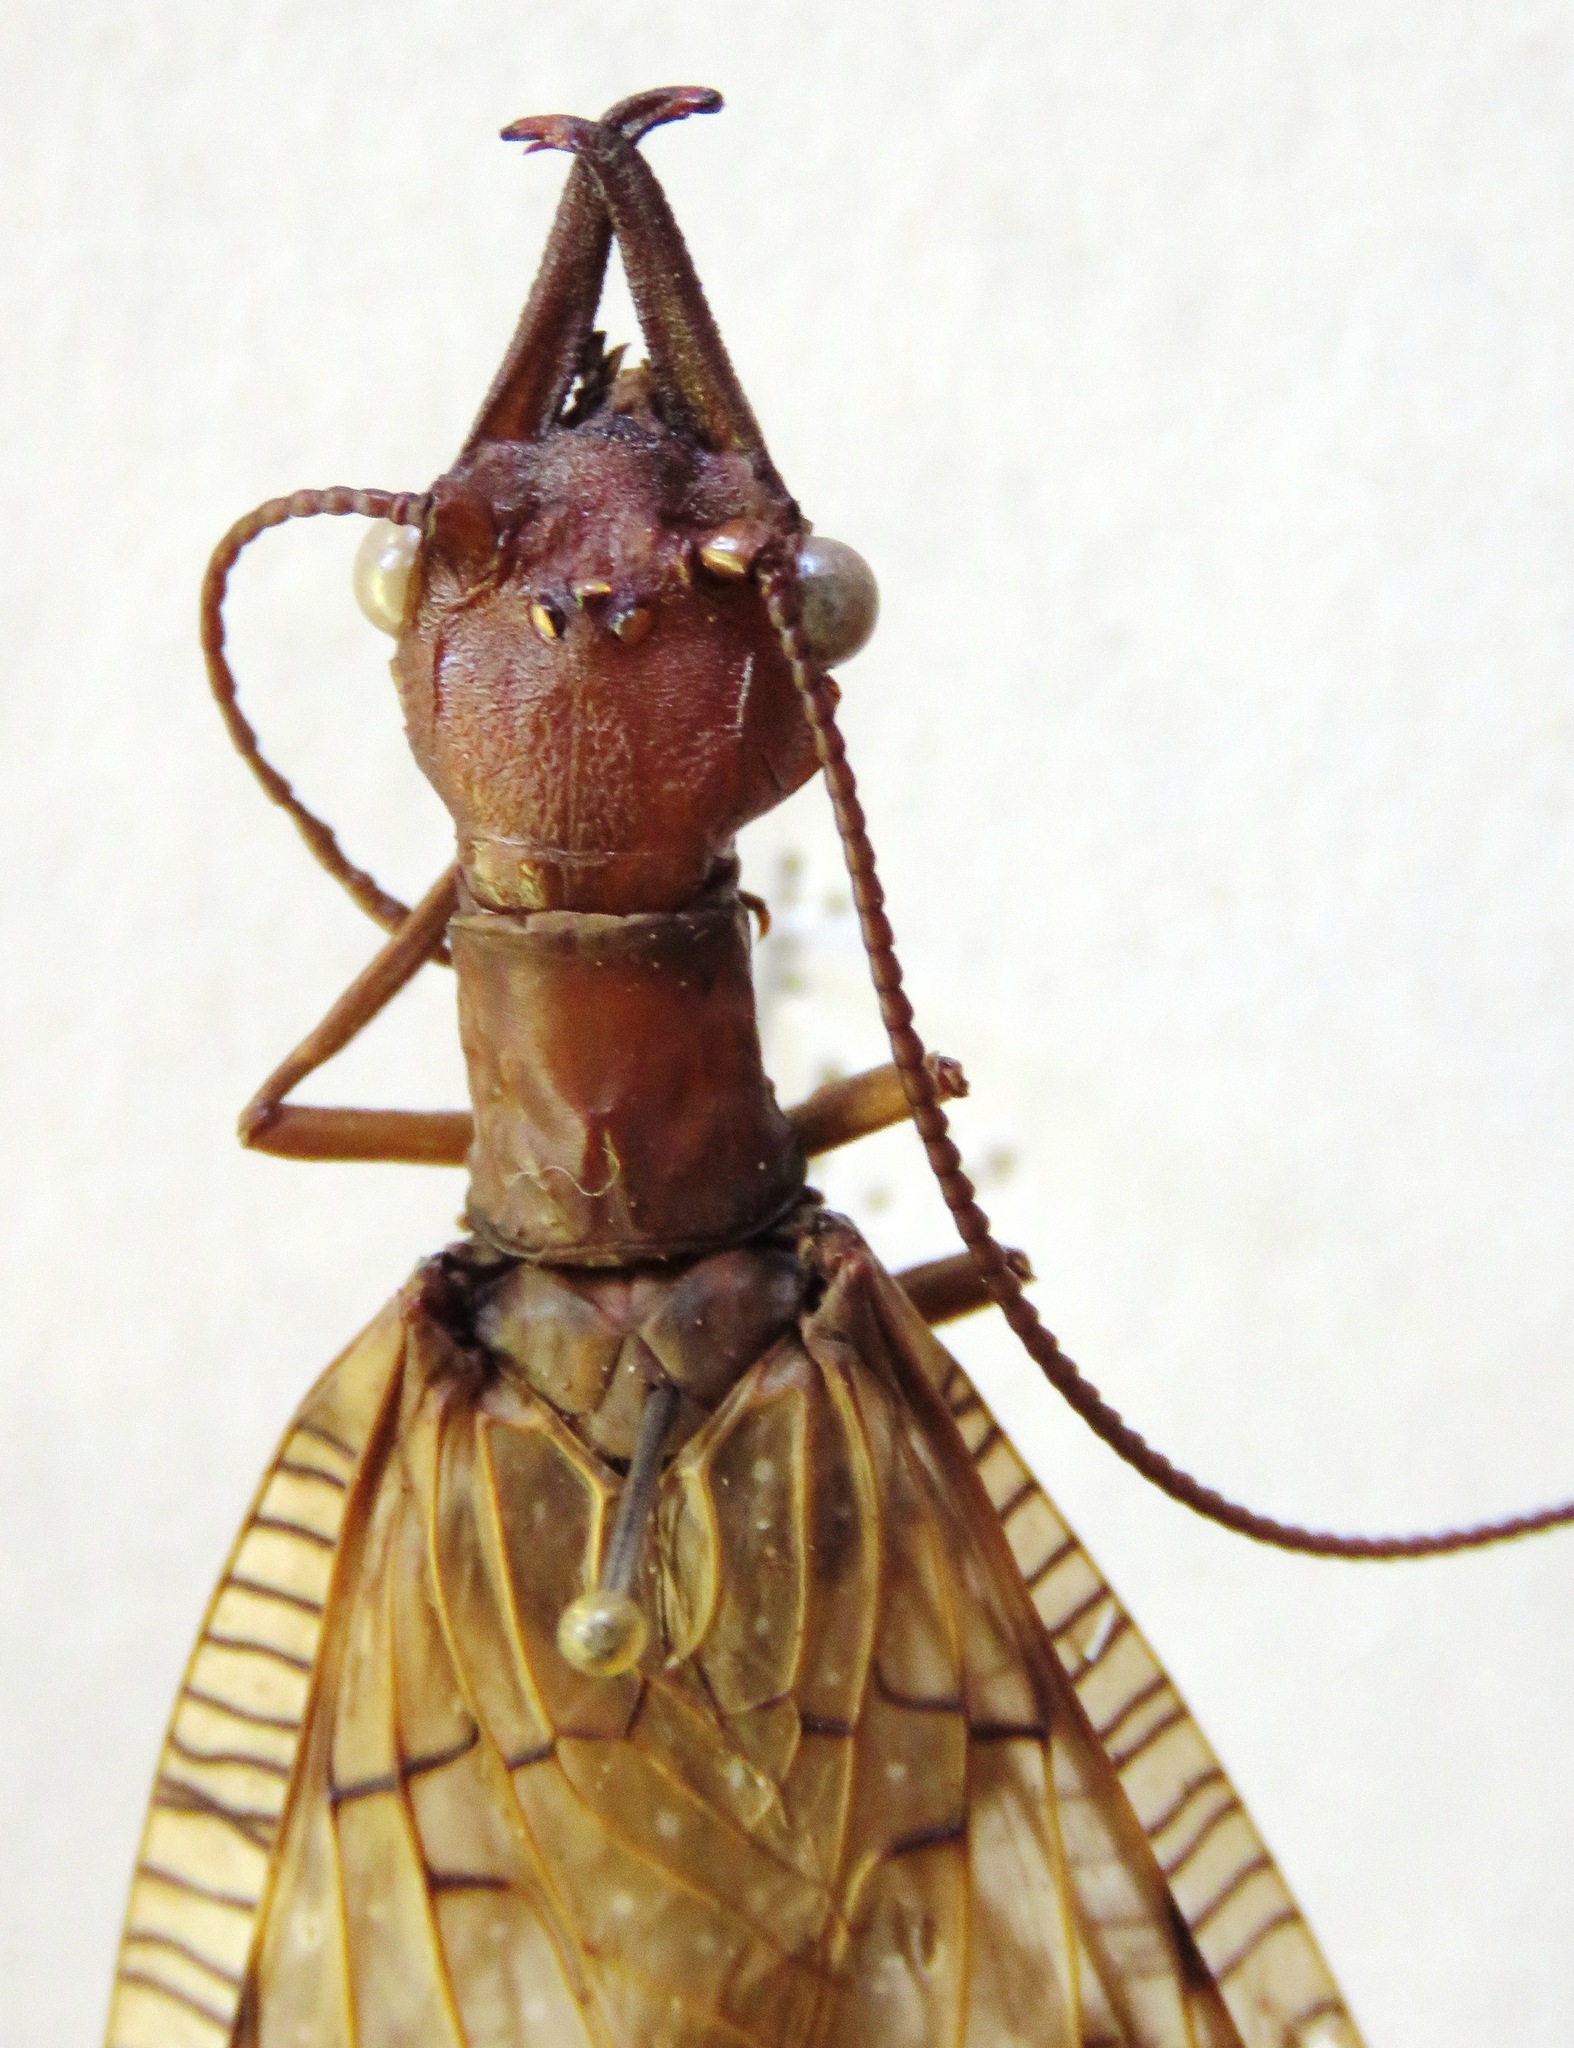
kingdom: Animalia
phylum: Arthropoda
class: Insecta
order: Megaloptera
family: Corydalidae
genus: Corydalus
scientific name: Corydalus magnus
